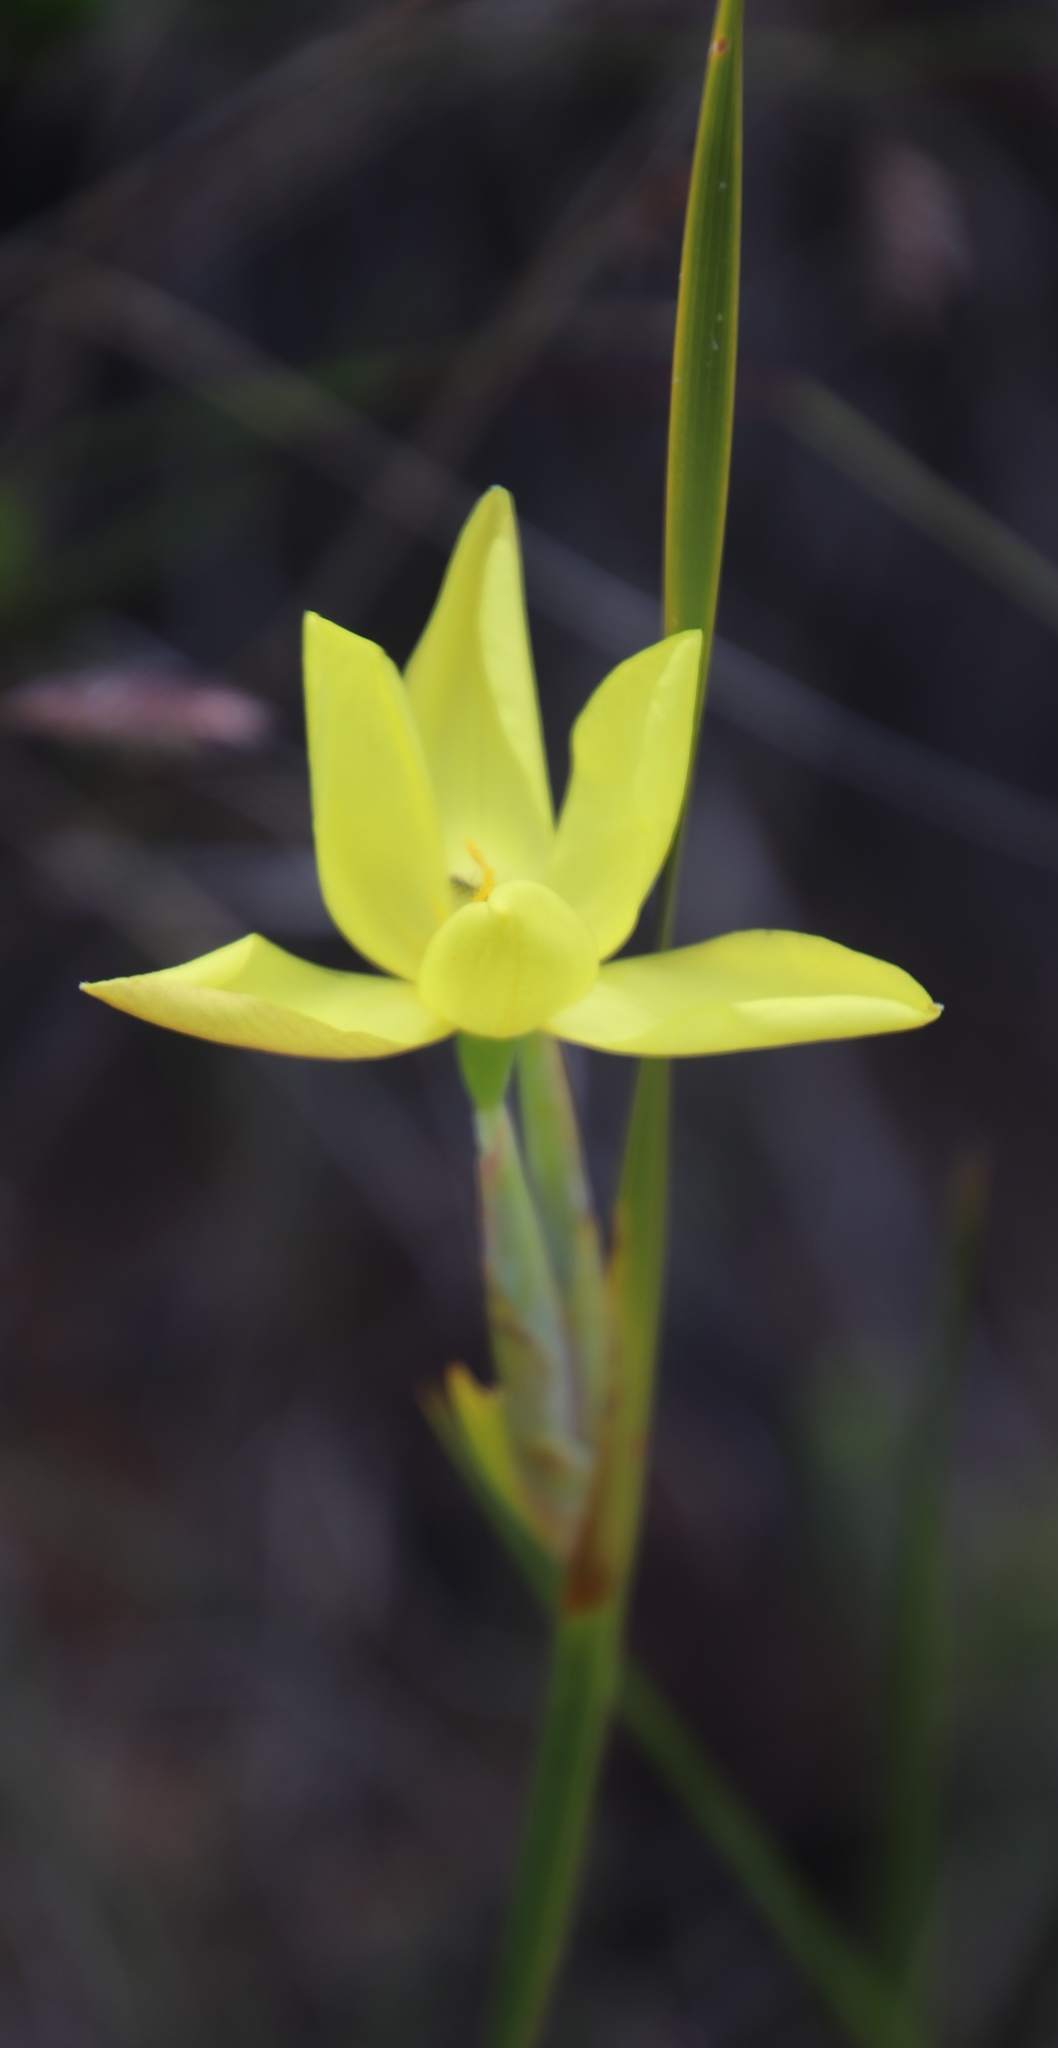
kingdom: Plantae
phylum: Tracheophyta
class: Liliopsida
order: Asparagales
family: Iridaceae
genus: Bobartia
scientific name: Bobartia gladiata
